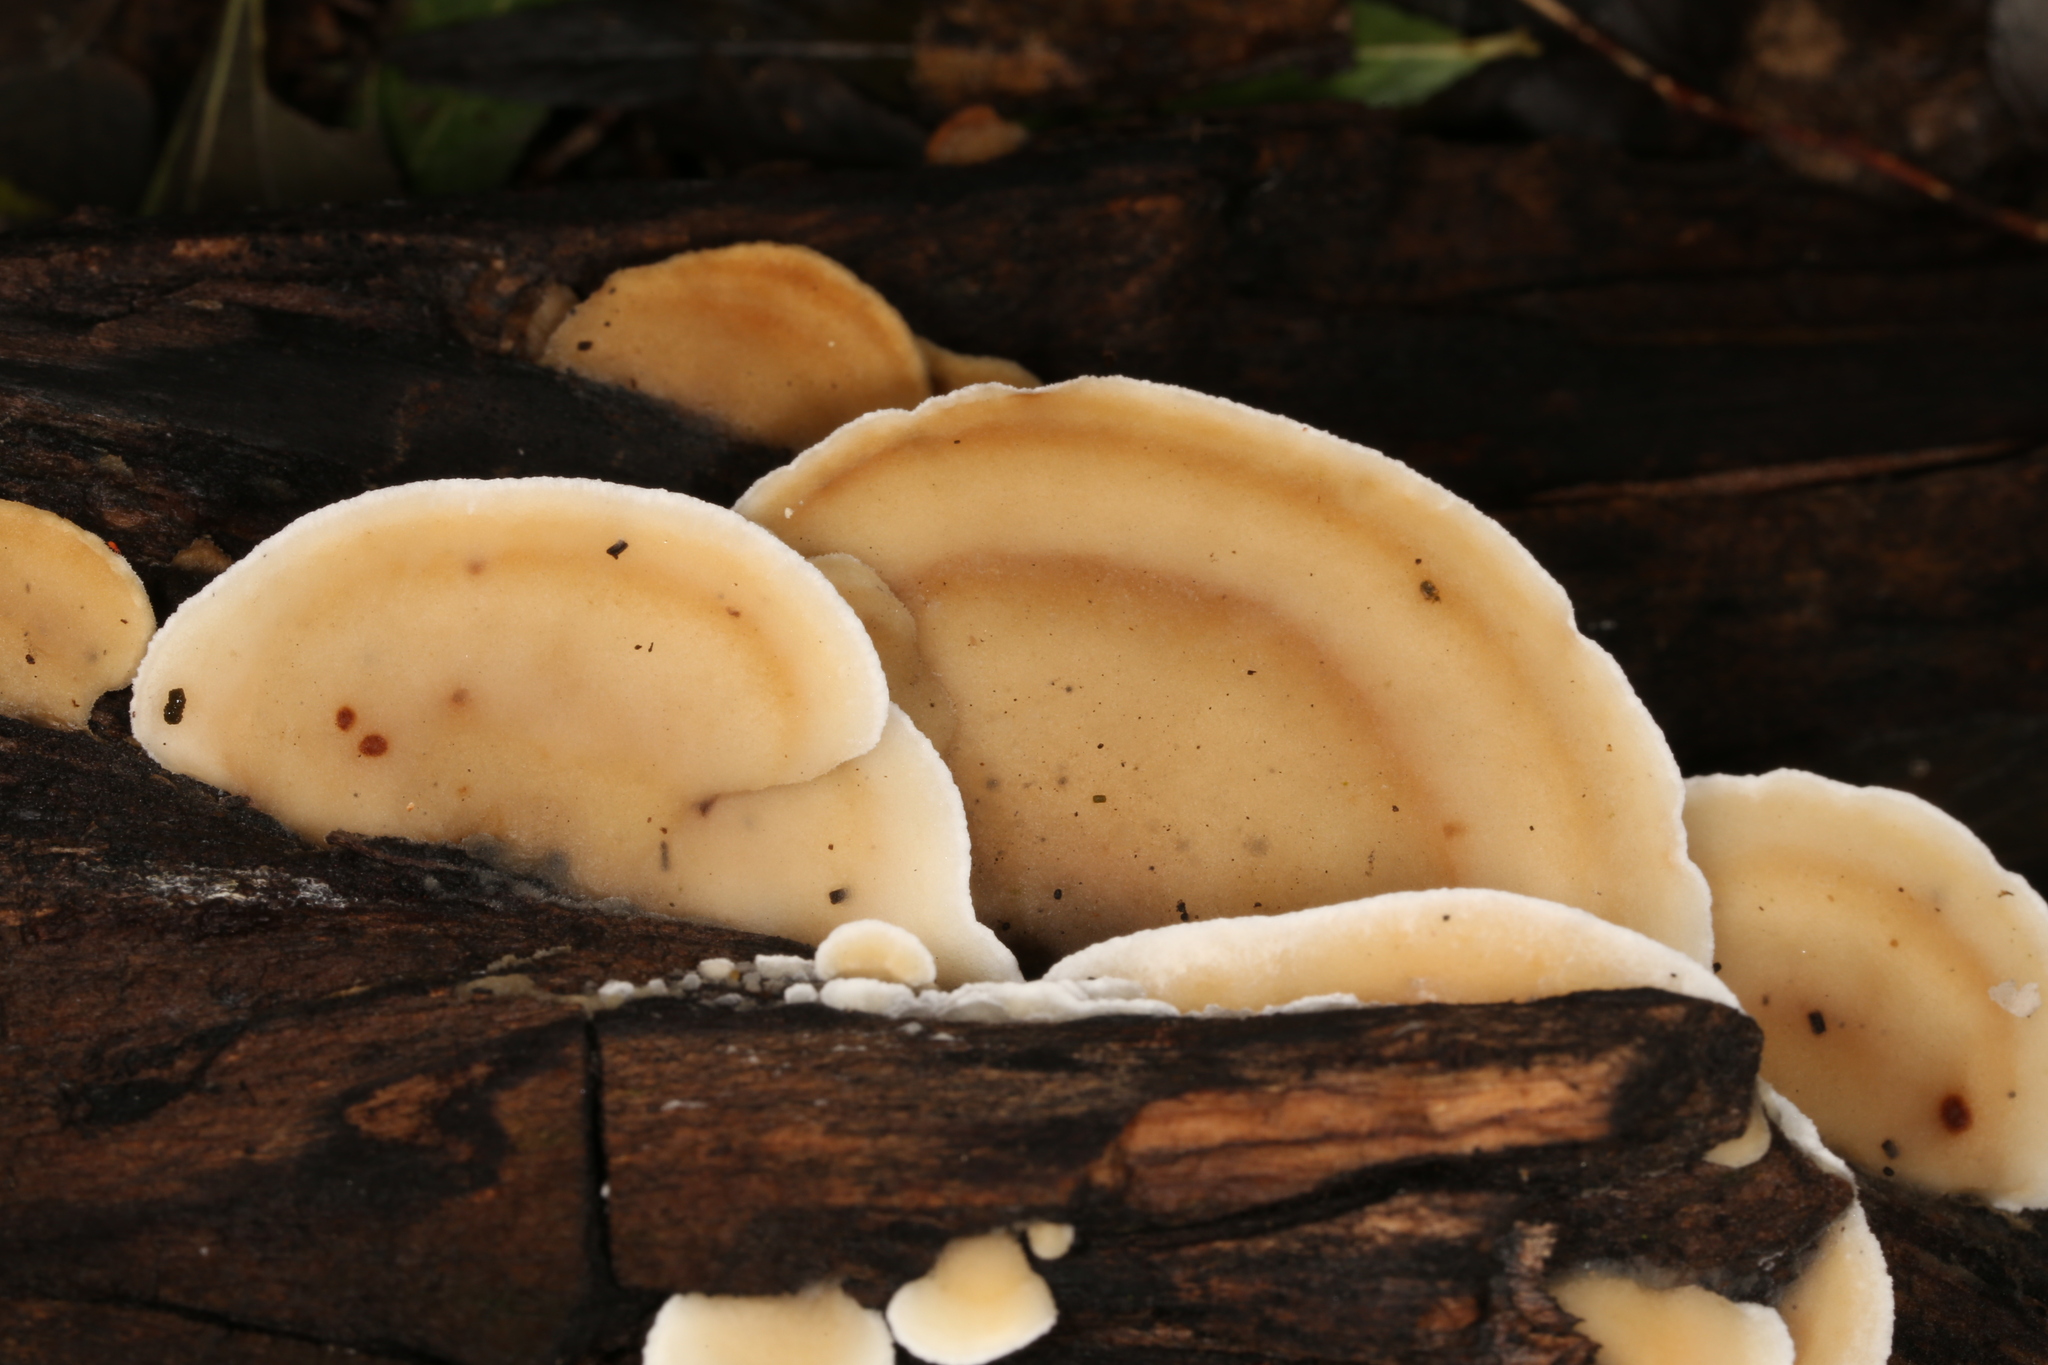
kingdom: Fungi
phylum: Basidiomycota
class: Agaricomycetes
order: Polyporales
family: Irpicaceae
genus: Vitreoporus
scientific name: Vitreoporus dichrous
